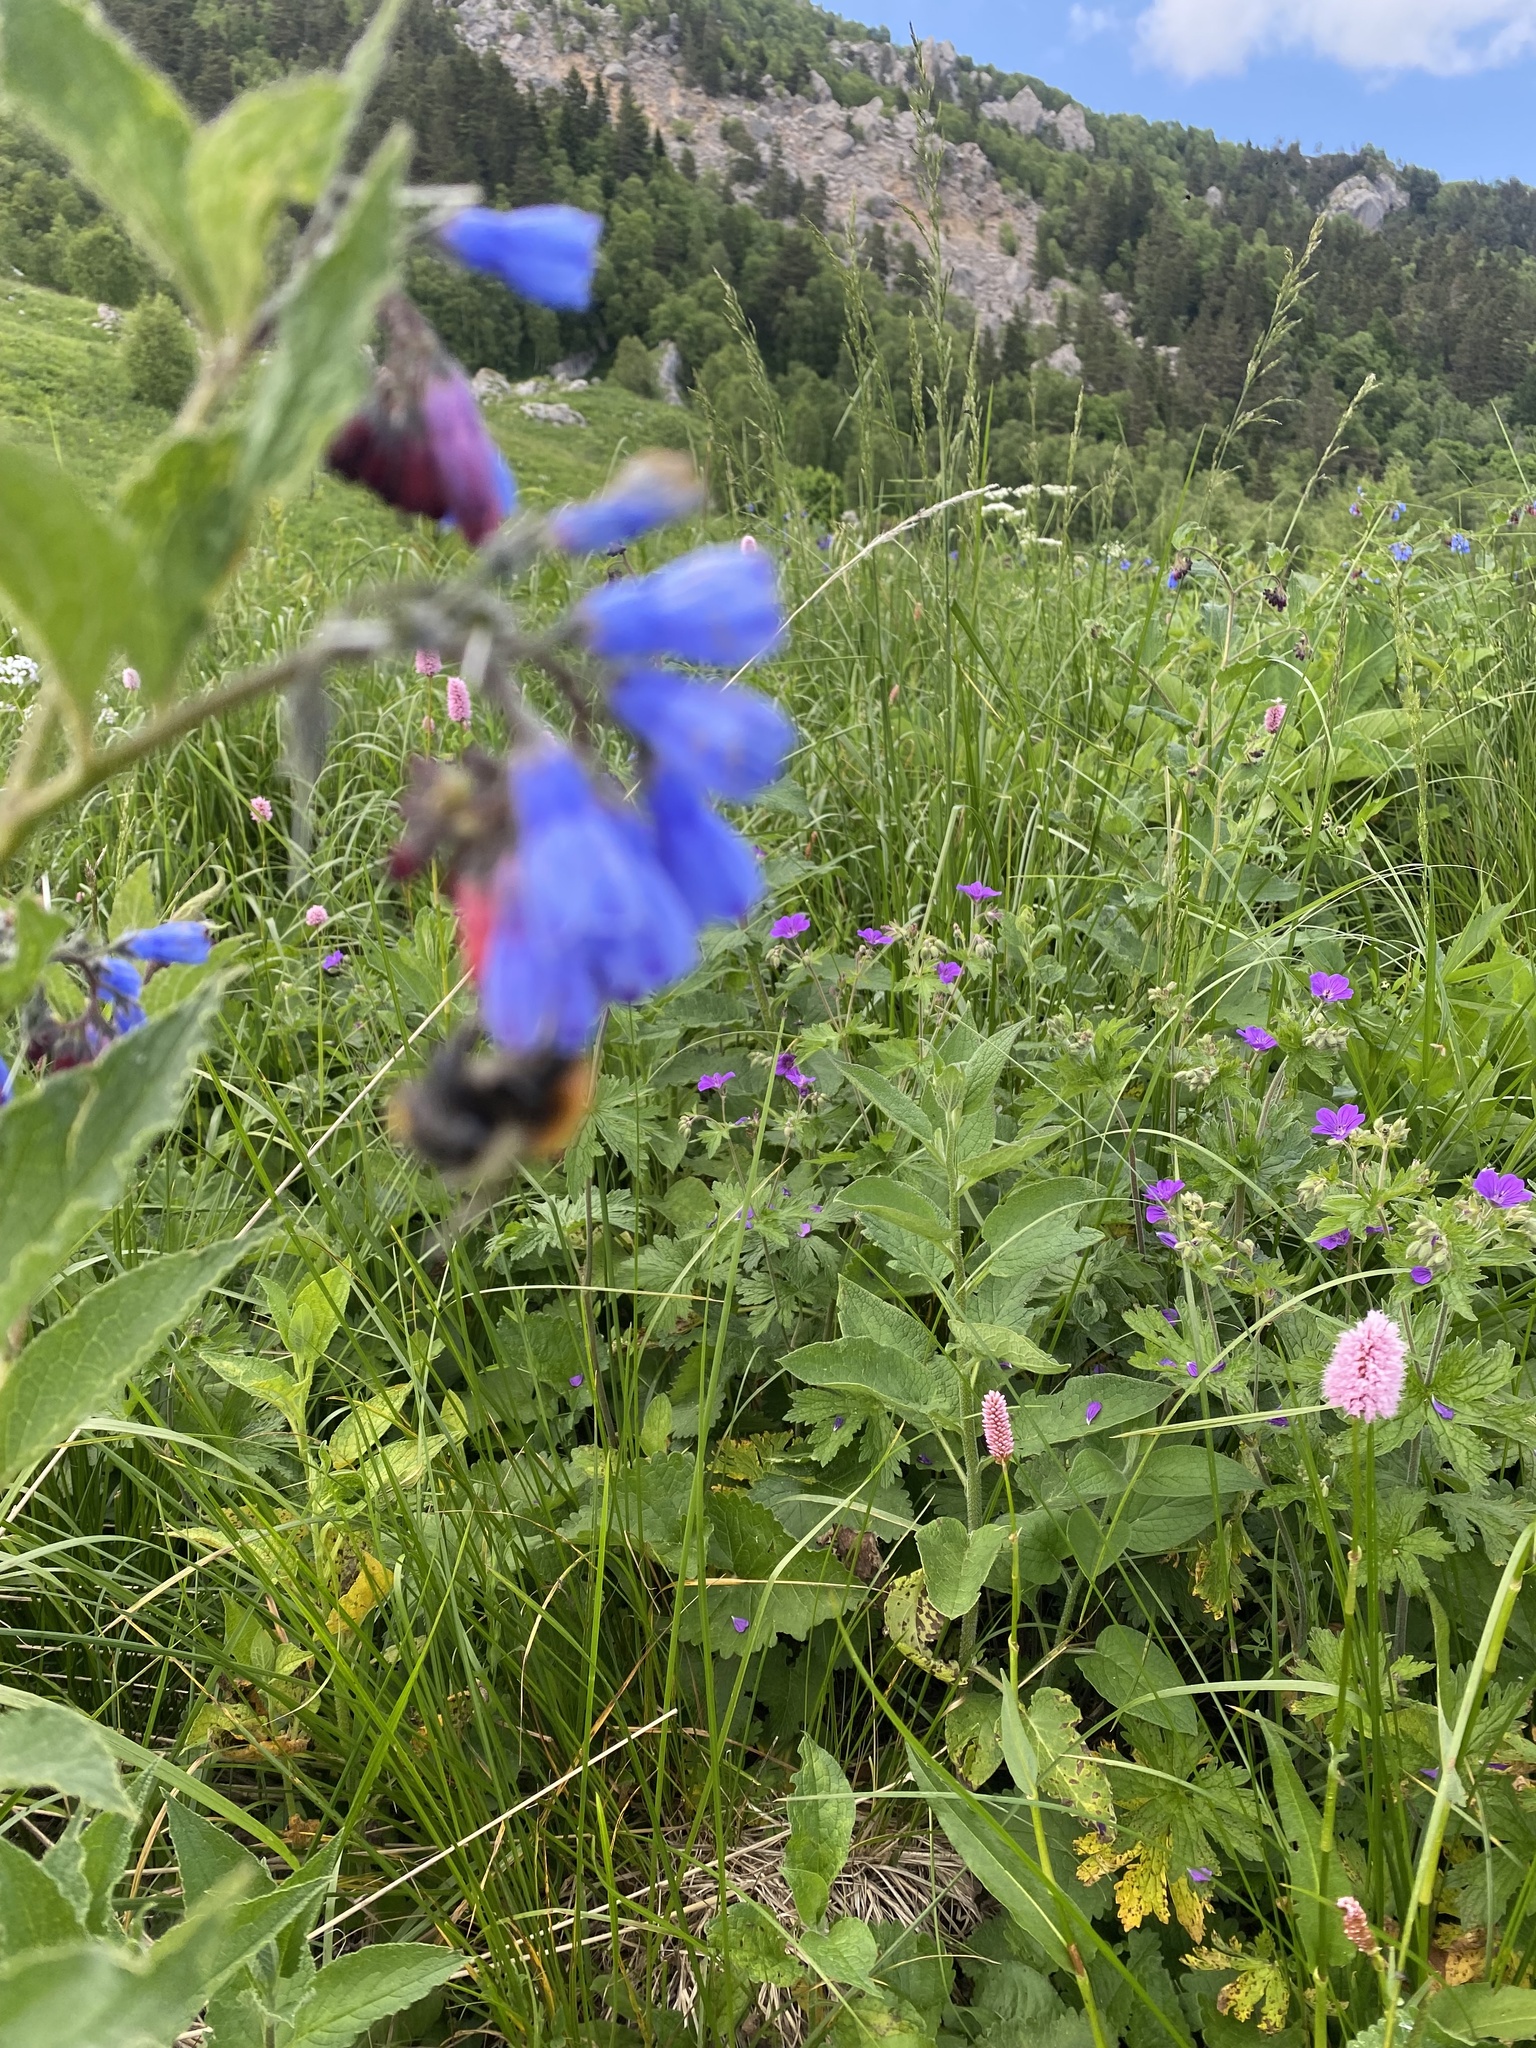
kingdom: Plantae
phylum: Tracheophyta
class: Magnoliopsida
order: Boraginales
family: Boraginaceae
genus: Symphytum
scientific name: Symphytum asperum
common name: Prickly comfrey
